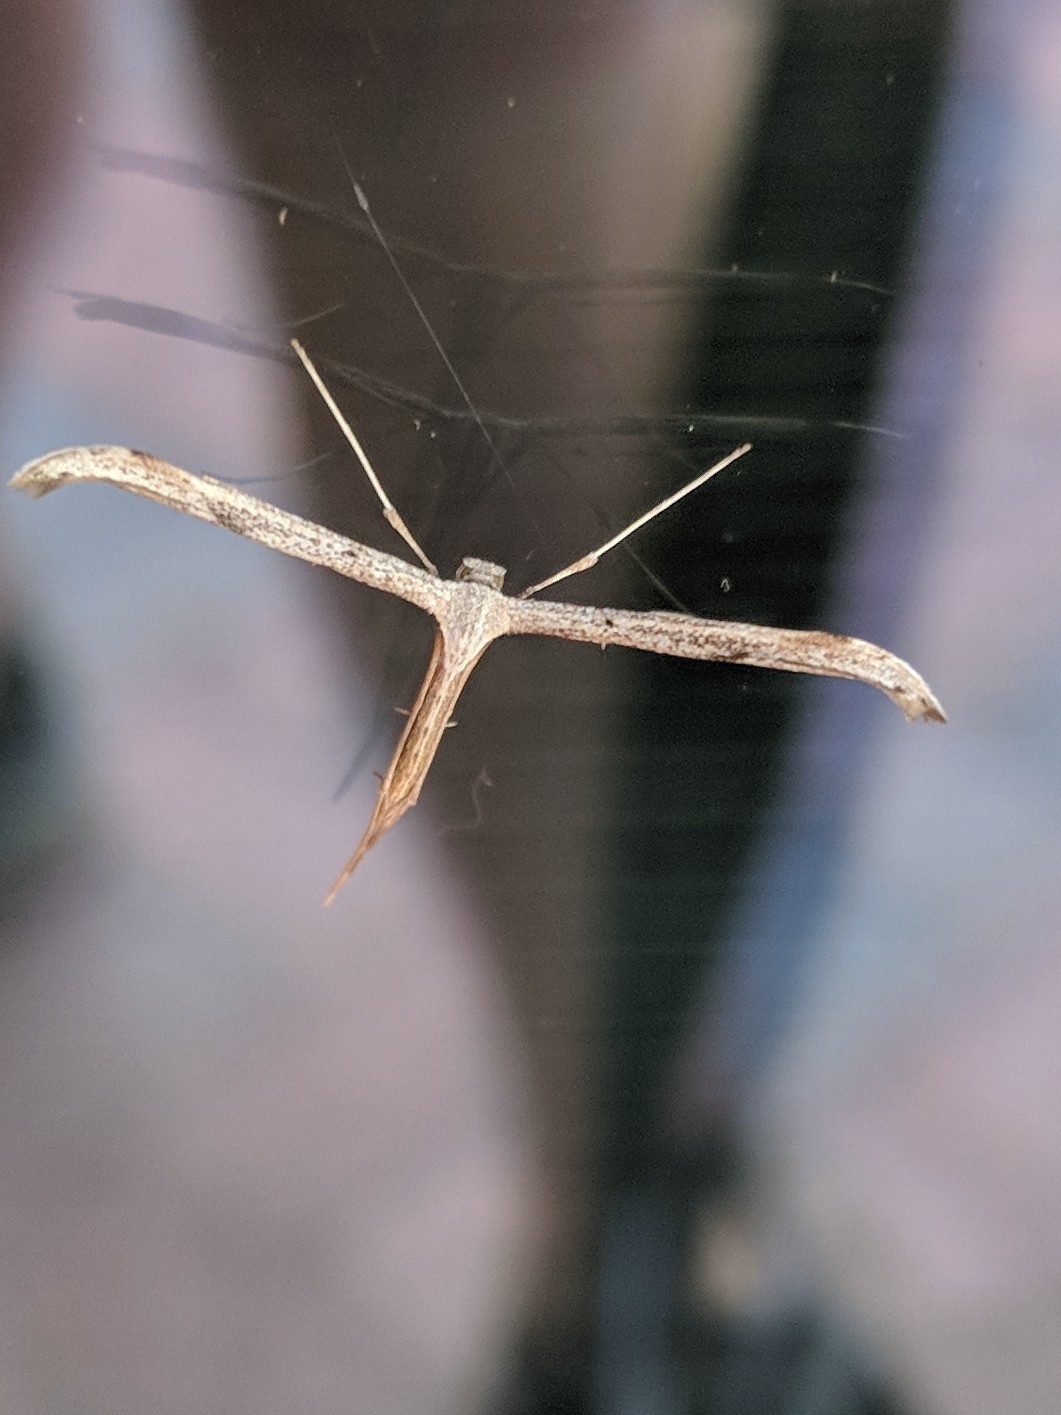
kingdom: Animalia
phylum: Arthropoda
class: Insecta
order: Lepidoptera
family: Pterophoridae
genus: Emmelina
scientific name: Emmelina monodactyla
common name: Common plume
